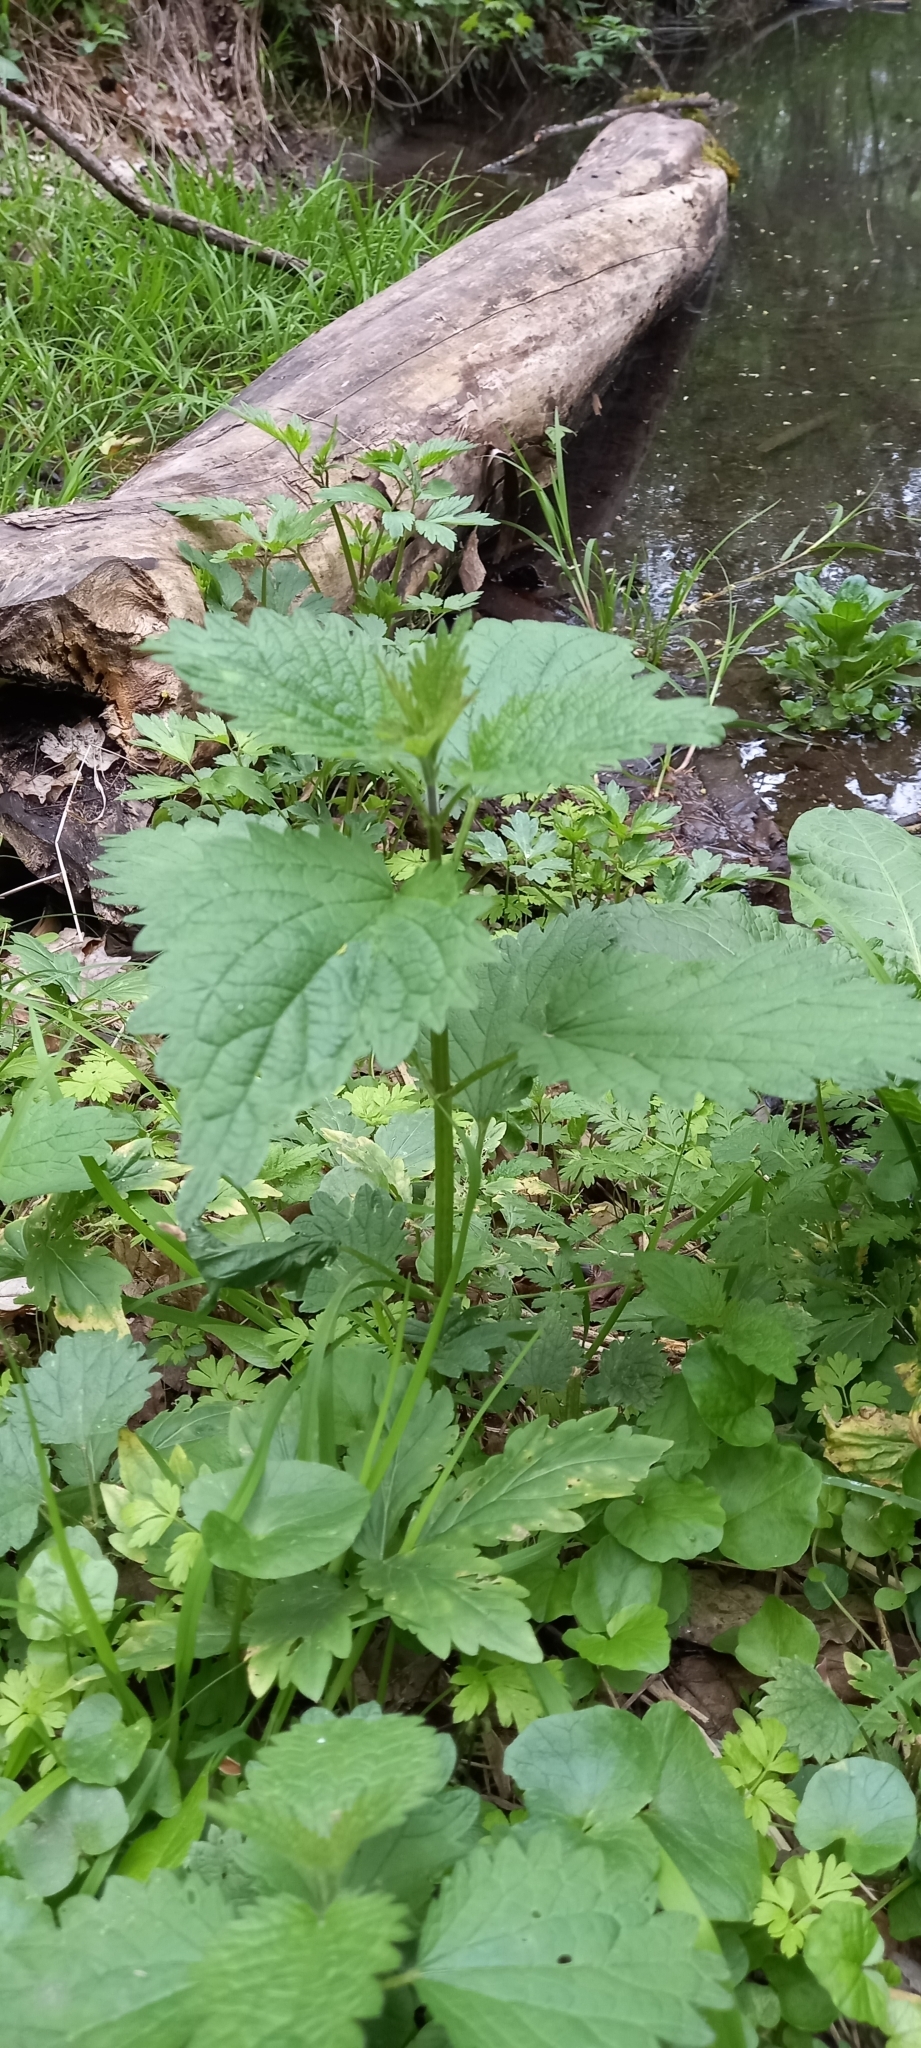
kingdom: Plantae
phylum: Tracheophyta
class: Magnoliopsida
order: Rosales
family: Urticaceae
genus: Urtica
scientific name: Urtica dioica
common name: Common nettle
